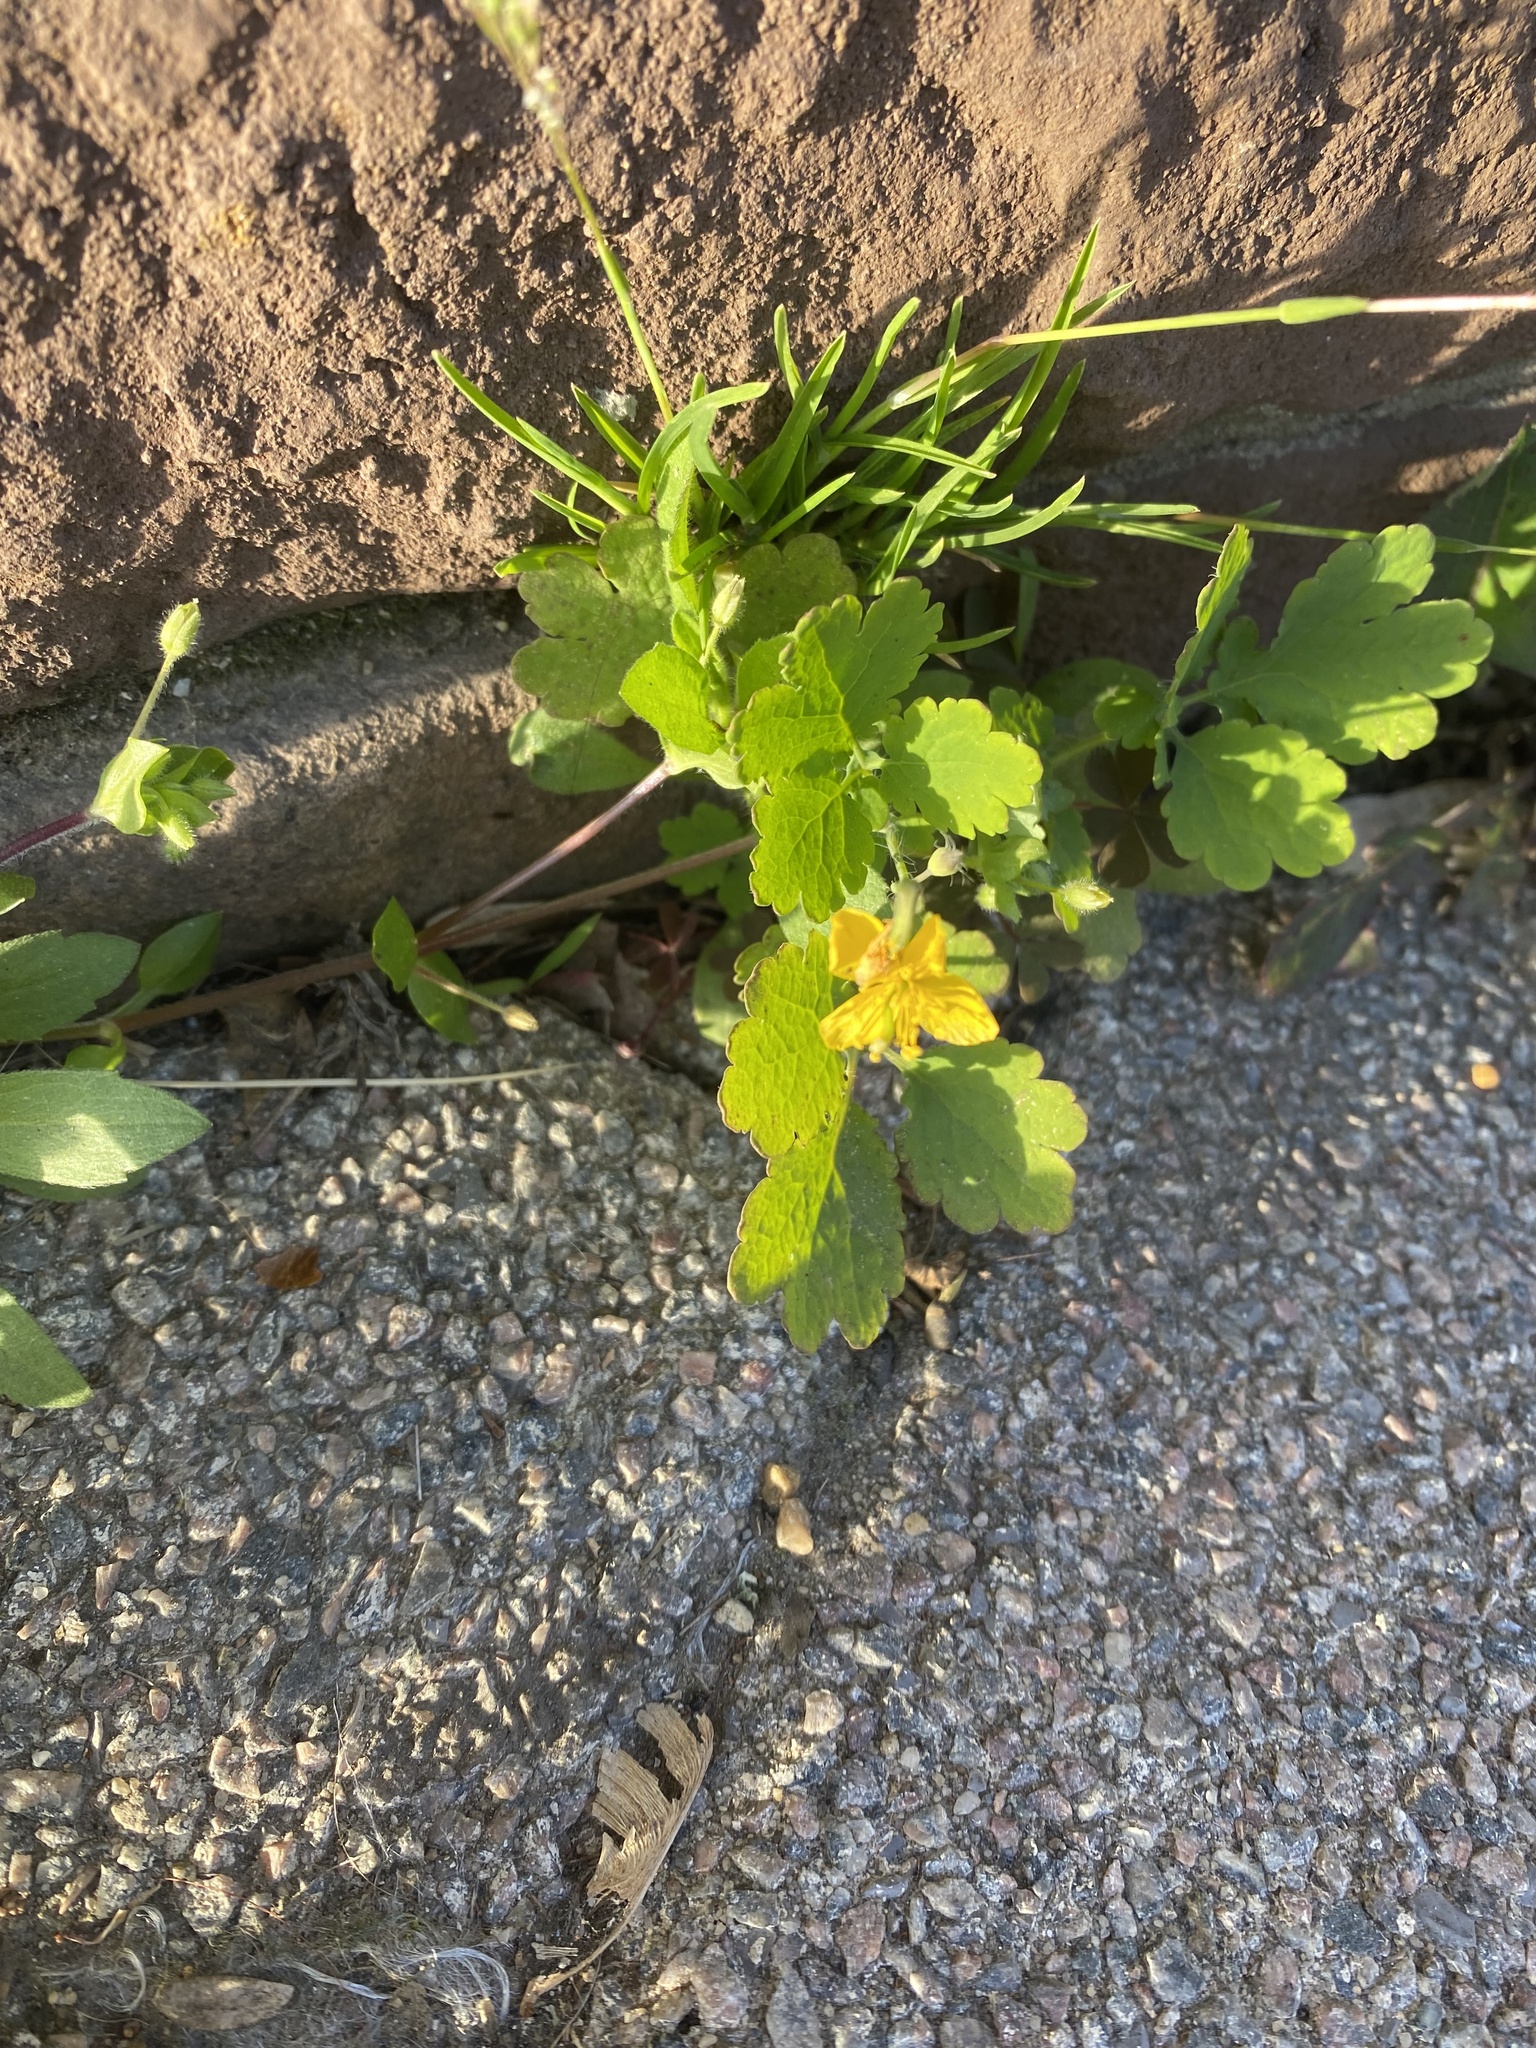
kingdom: Plantae
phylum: Tracheophyta
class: Magnoliopsida
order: Ranunculales
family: Papaveraceae
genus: Chelidonium
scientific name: Chelidonium majus
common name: Greater celandine
